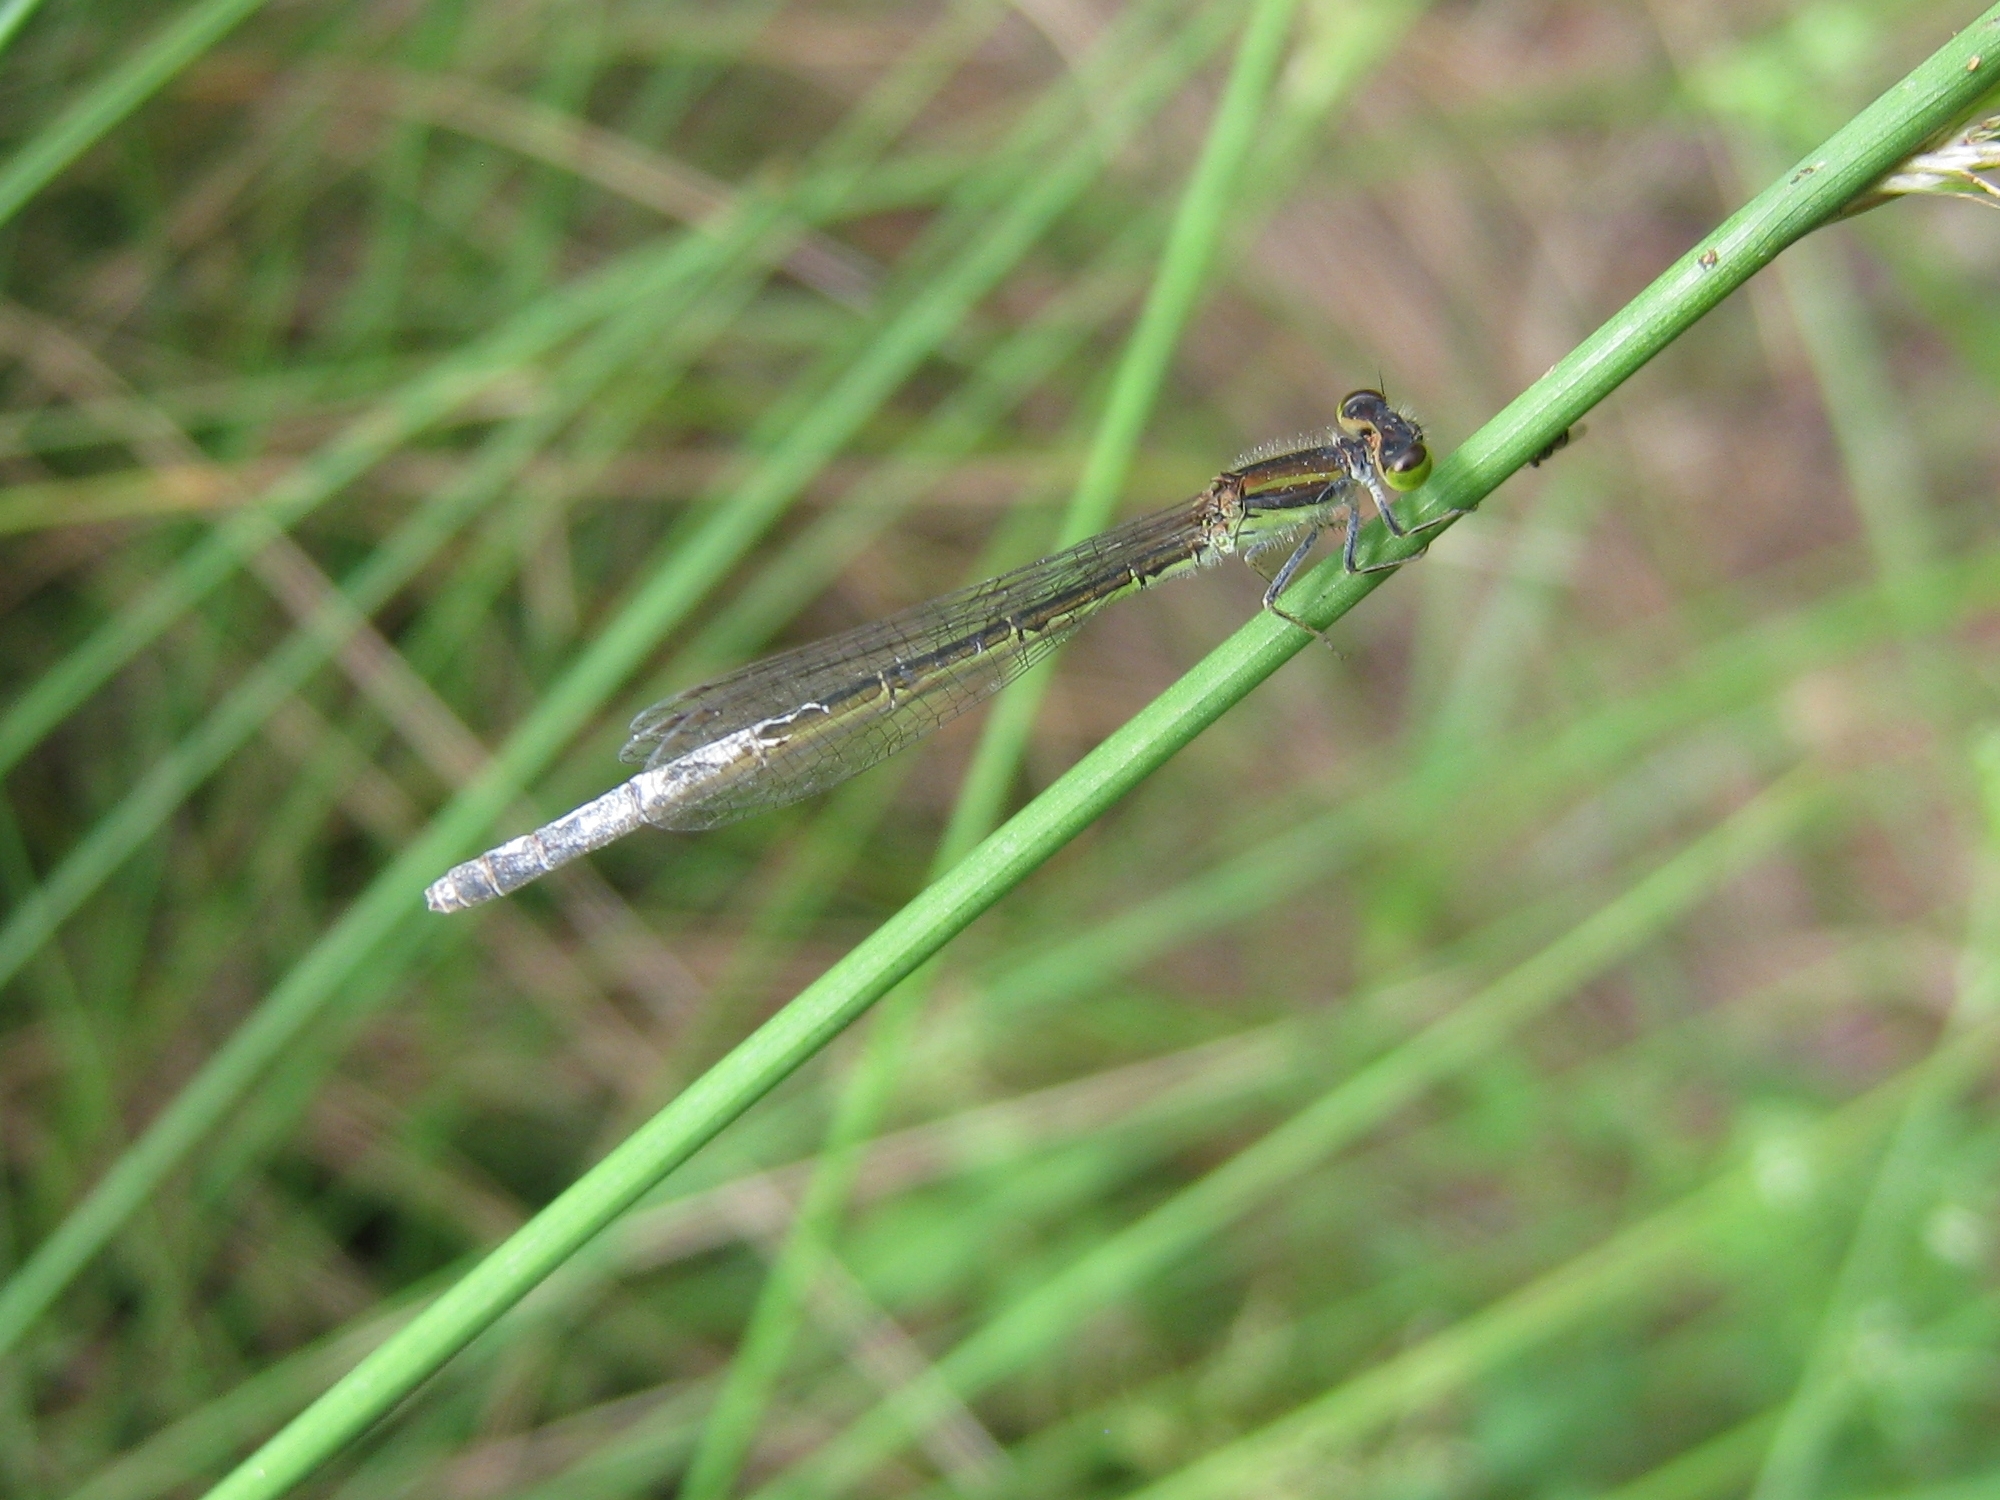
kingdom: Animalia
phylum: Arthropoda
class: Insecta
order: Odonata
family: Coenagrionidae
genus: Ischnura
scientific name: Ischnura aurora
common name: Gossamer damselfly
